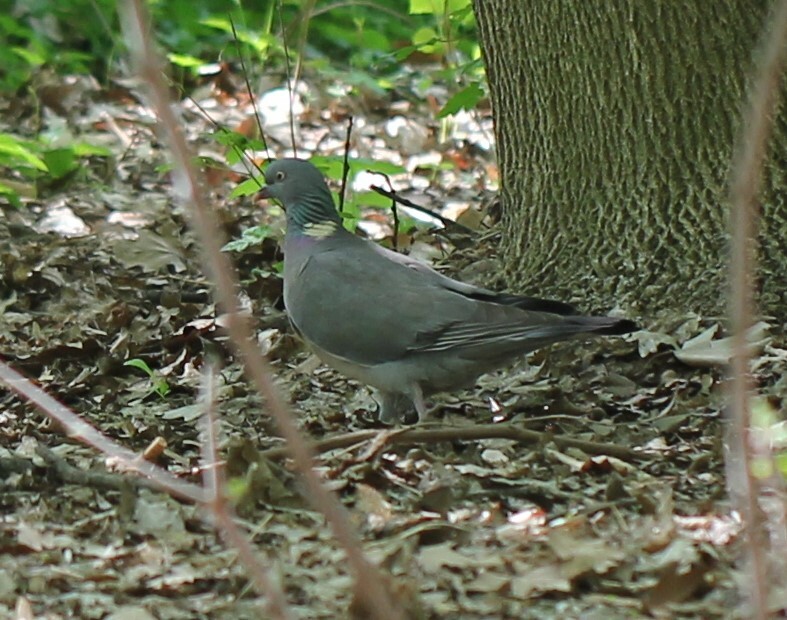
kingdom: Animalia
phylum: Chordata
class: Aves
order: Columbiformes
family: Columbidae
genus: Columba
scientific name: Columba palumbus
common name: Common wood pigeon
